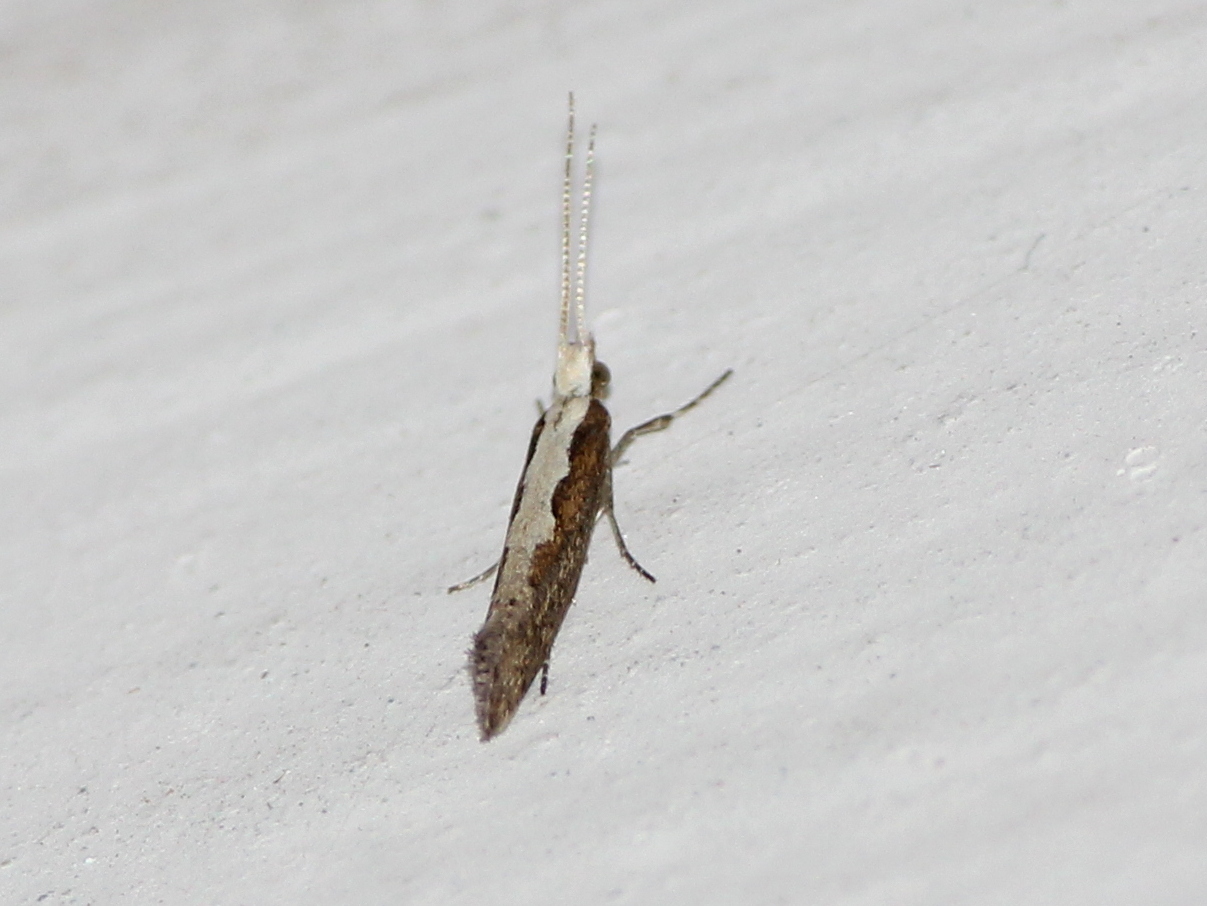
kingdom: Animalia
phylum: Arthropoda
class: Insecta
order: Lepidoptera
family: Plutellidae
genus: Plutella
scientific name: Plutella xylostella
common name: Diamond-back moth
